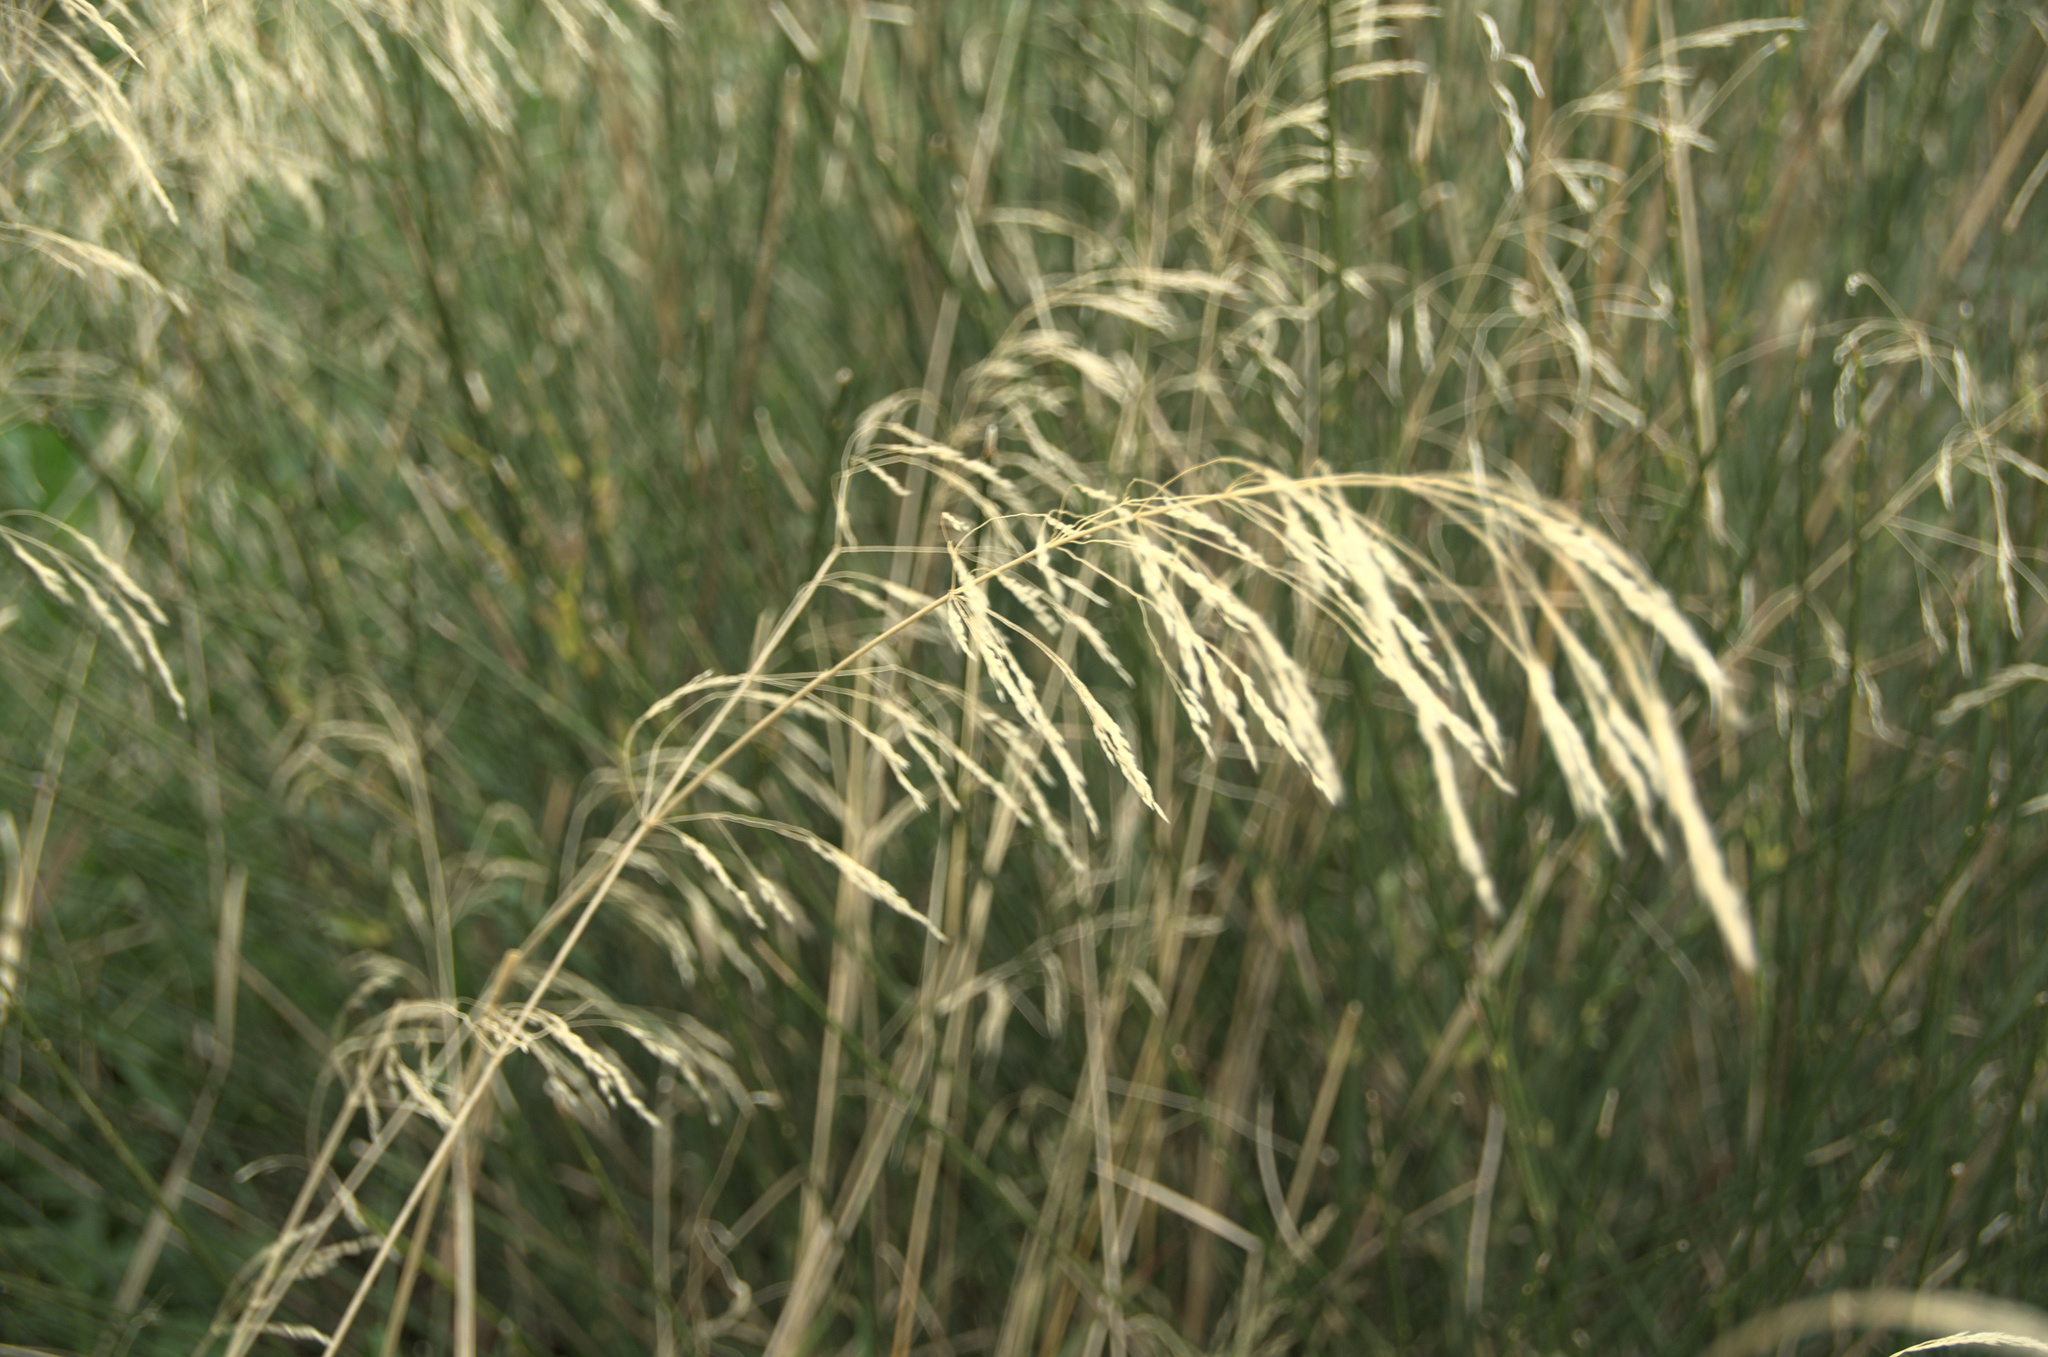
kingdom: Plantae
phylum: Tracheophyta
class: Liliopsida
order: Poales
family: Poaceae
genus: Oloptum
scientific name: Oloptum miliaceum
